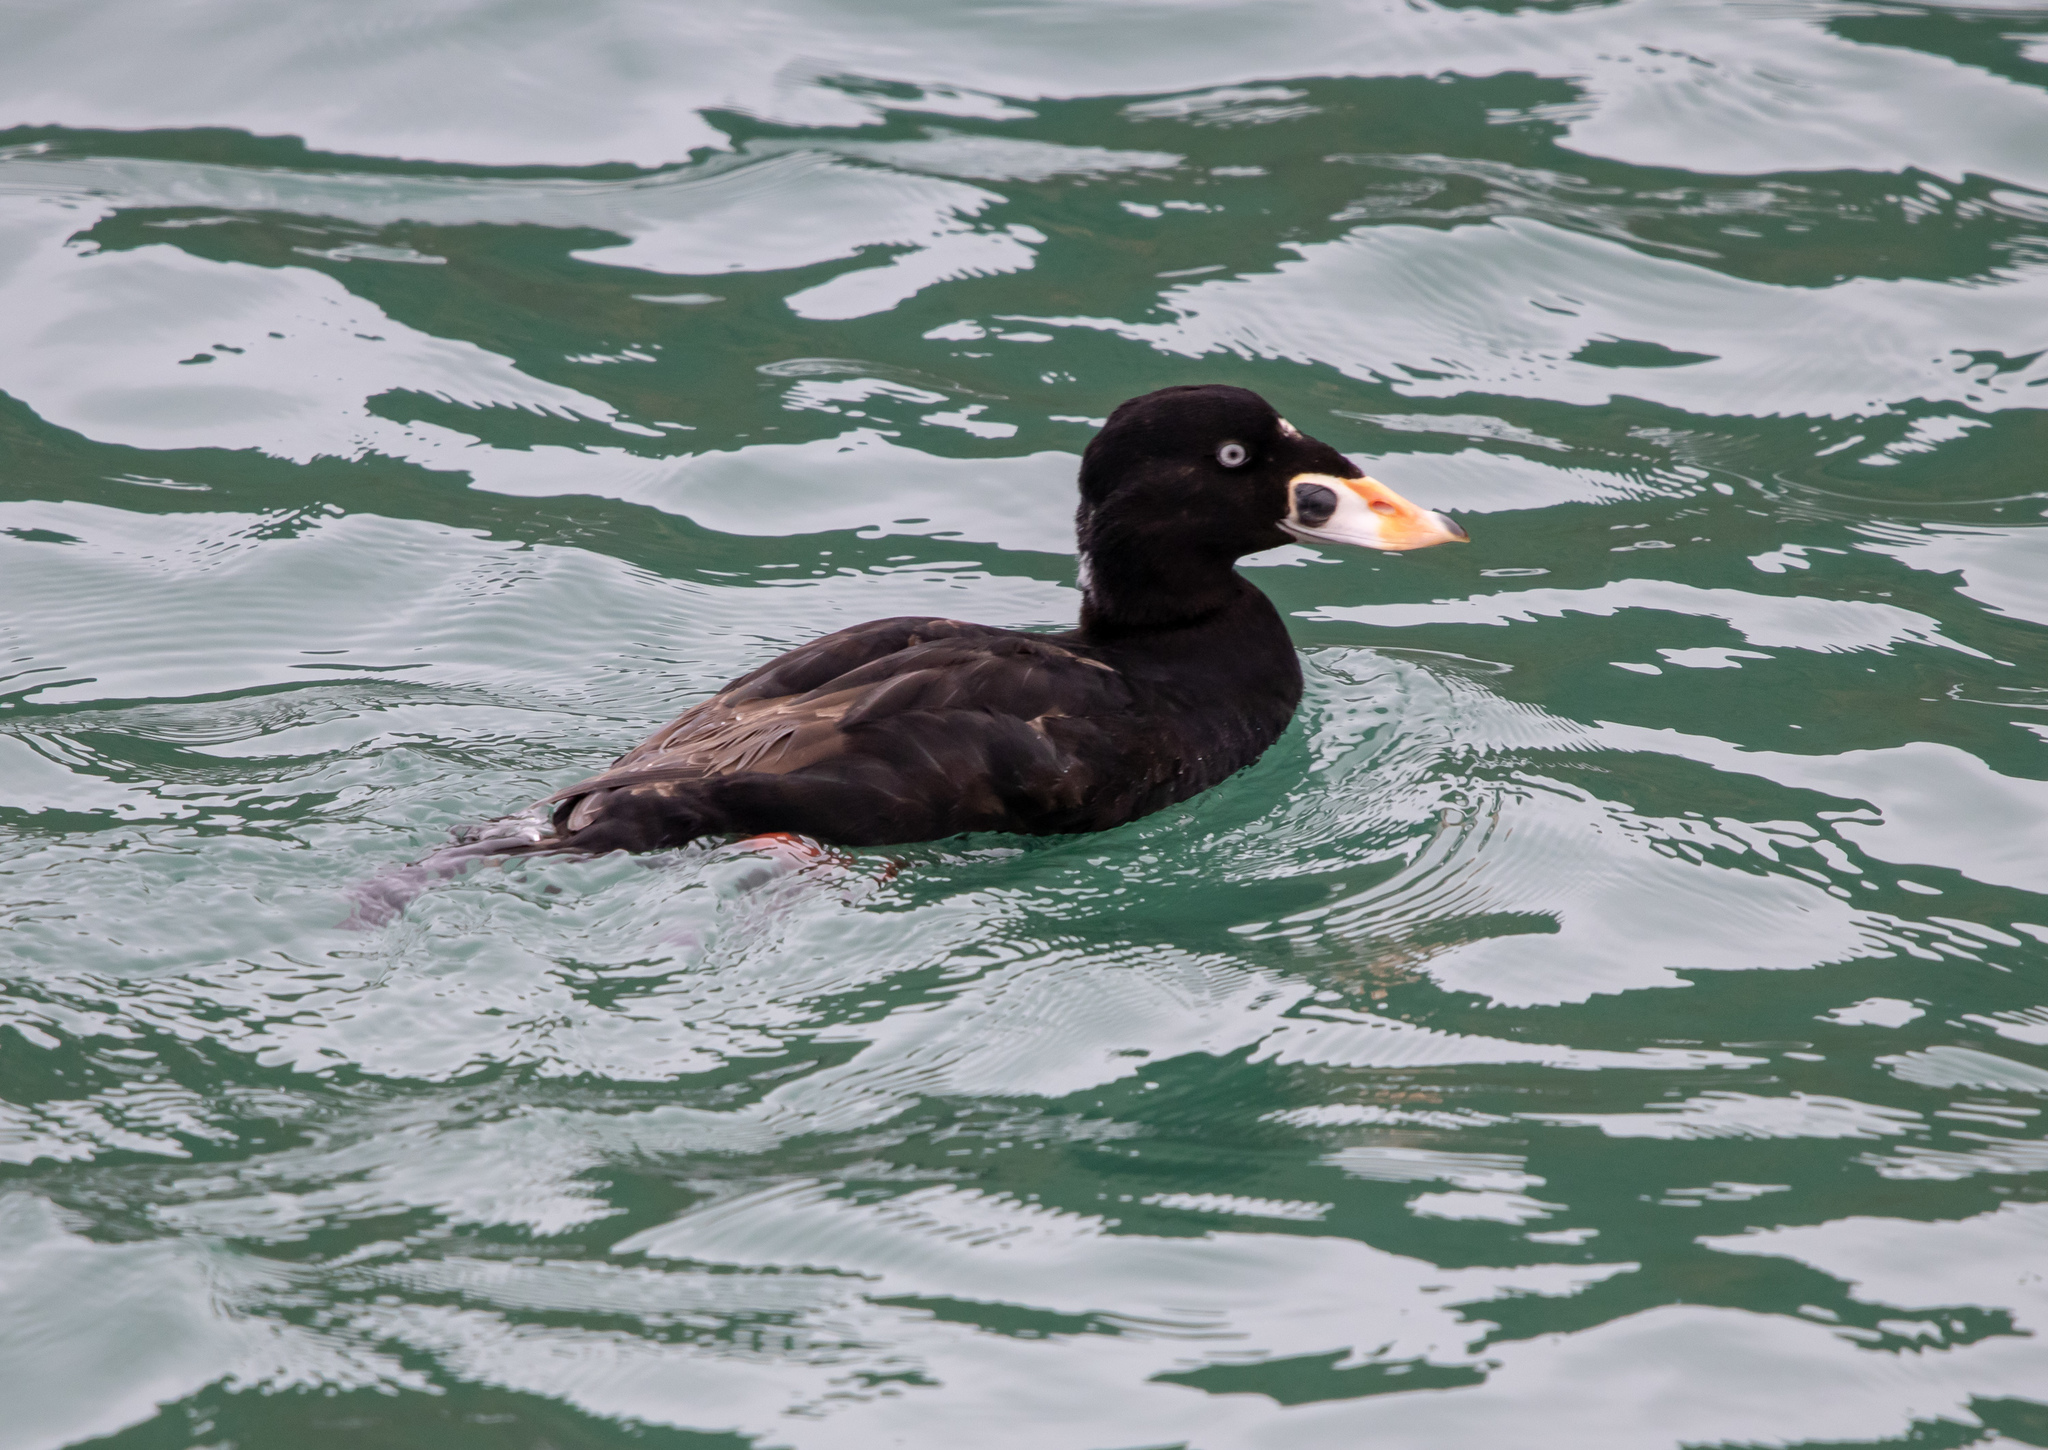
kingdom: Animalia
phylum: Chordata
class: Aves
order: Anseriformes
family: Anatidae
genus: Melanitta
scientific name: Melanitta perspicillata
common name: Surf scoter
